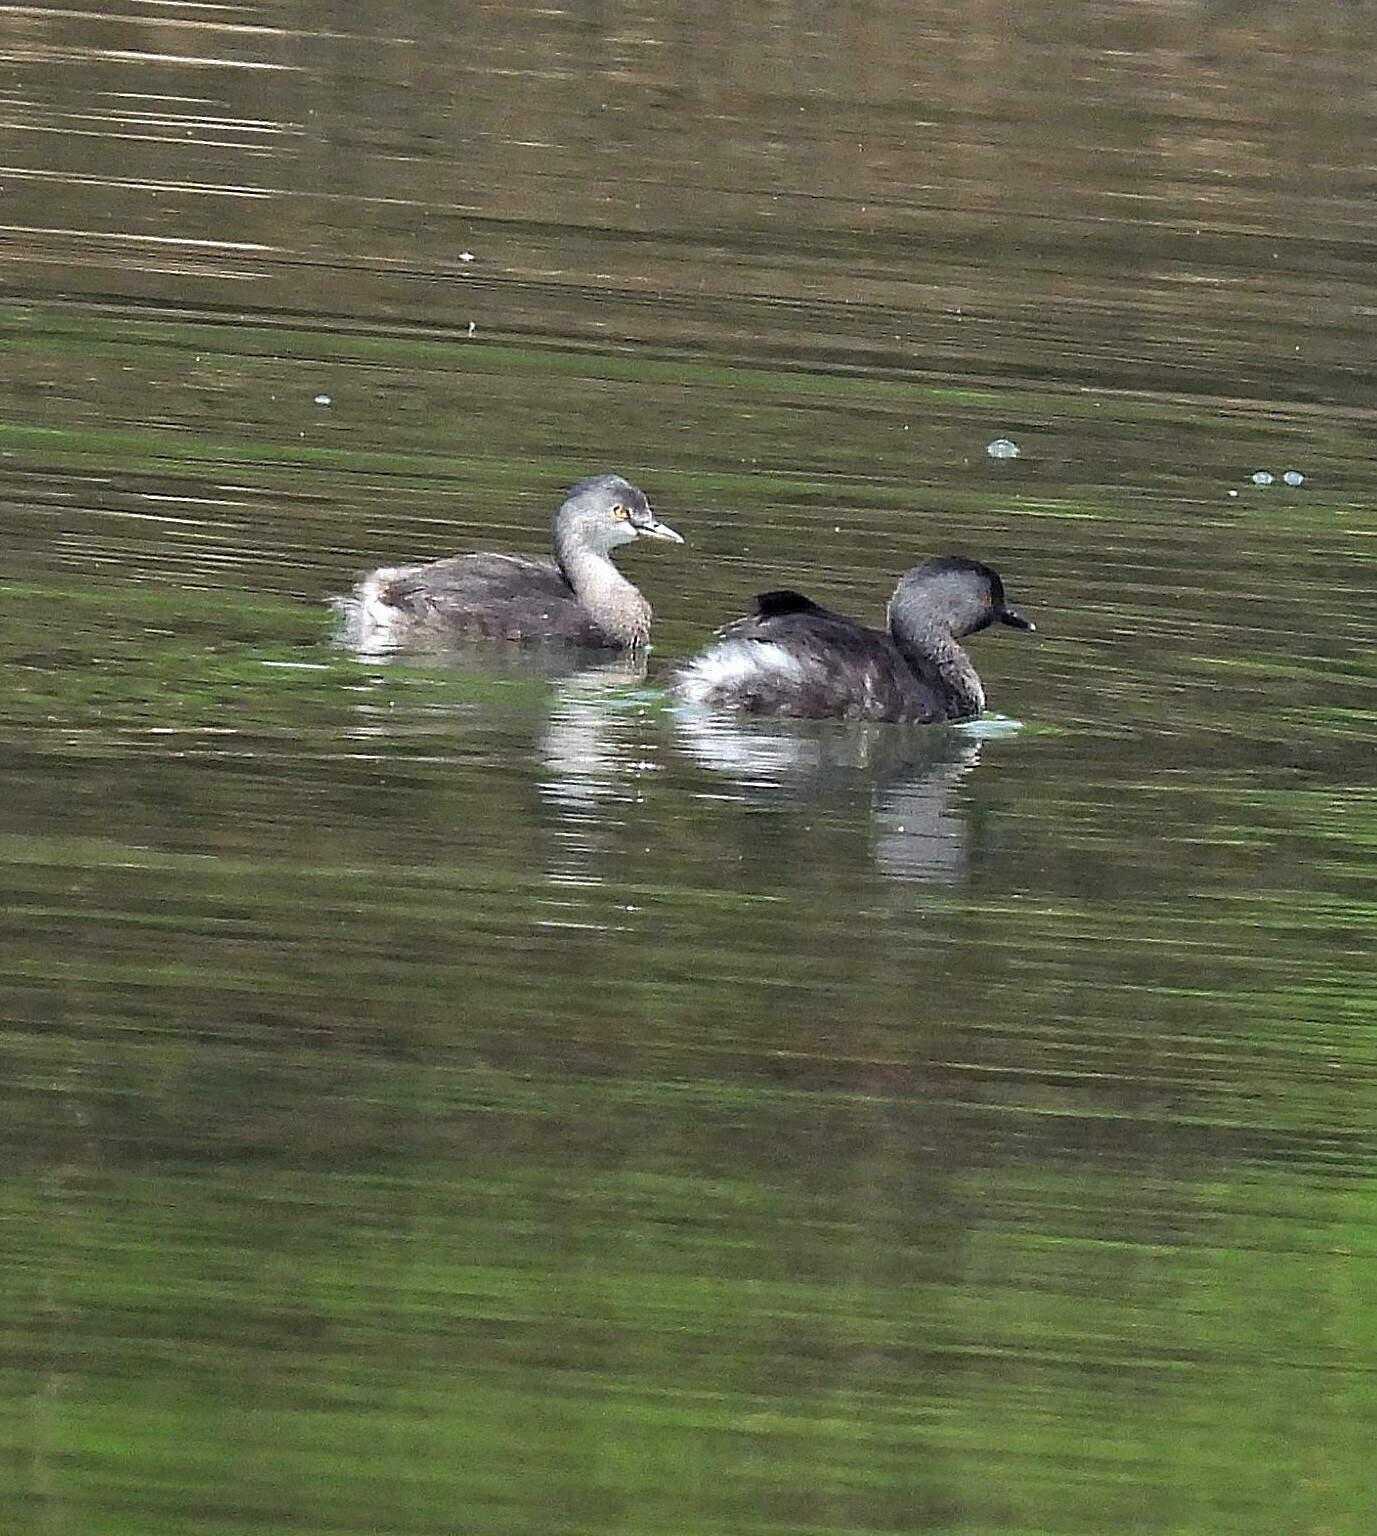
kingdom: Animalia
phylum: Chordata
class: Aves
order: Podicipediformes
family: Podicipedidae
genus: Tachybaptus
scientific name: Tachybaptus dominicus
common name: Least grebe
